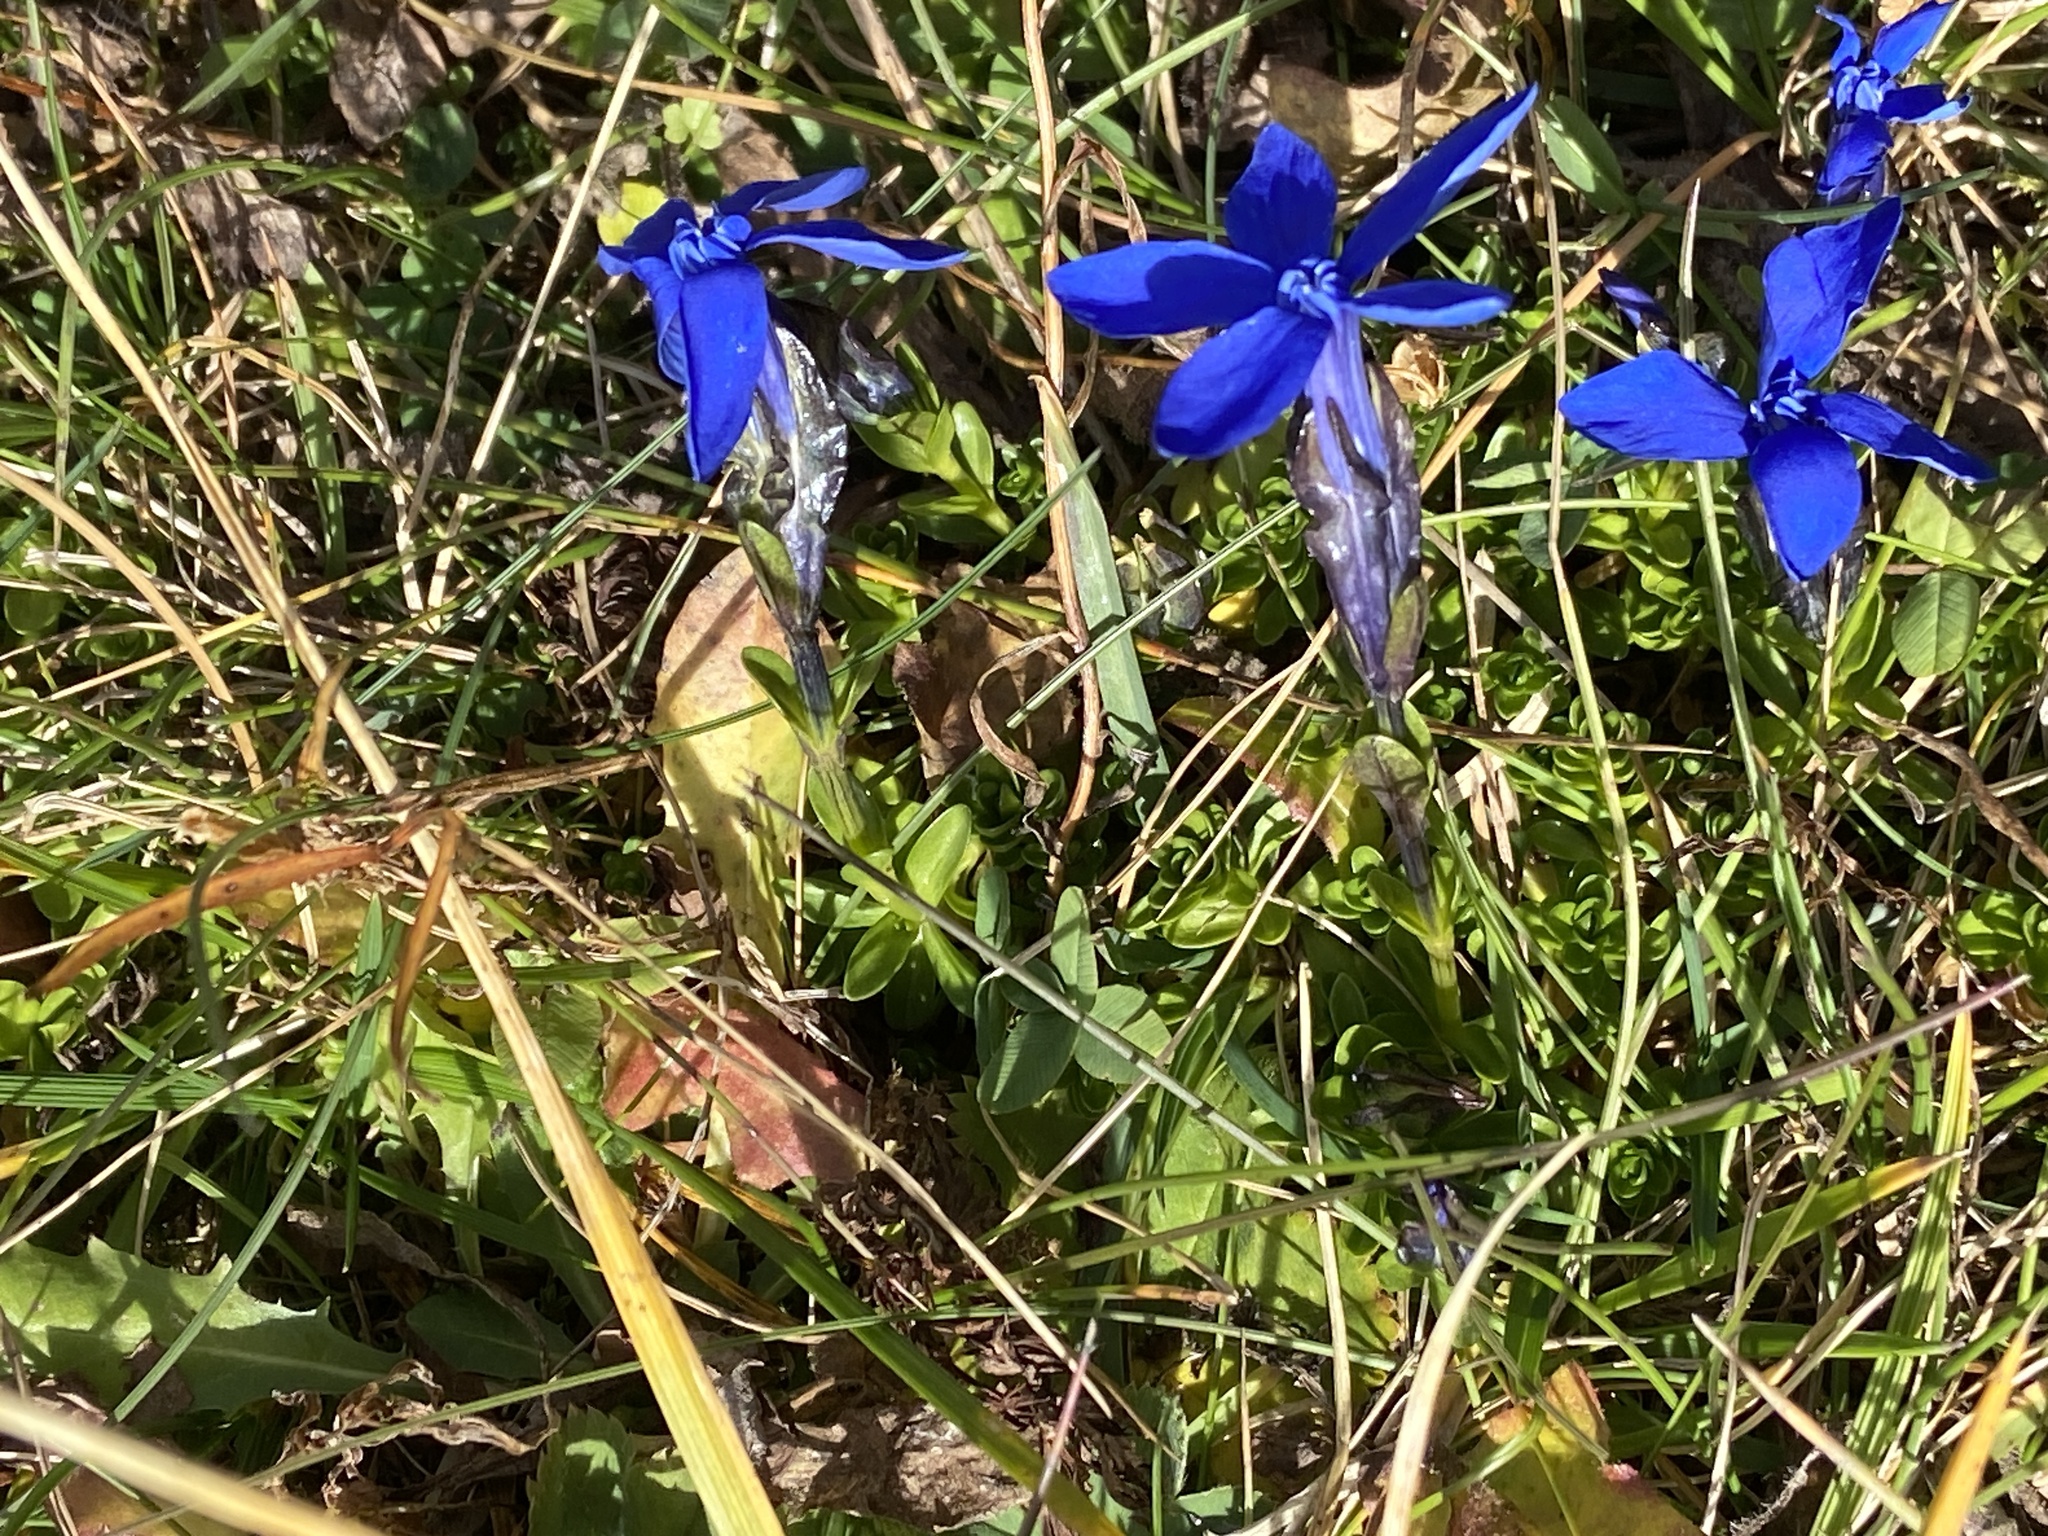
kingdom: Plantae
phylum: Tracheophyta
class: Magnoliopsida
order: Gentianales
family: Gentianaceae
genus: Gentiana
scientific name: Gentiana bavarica
